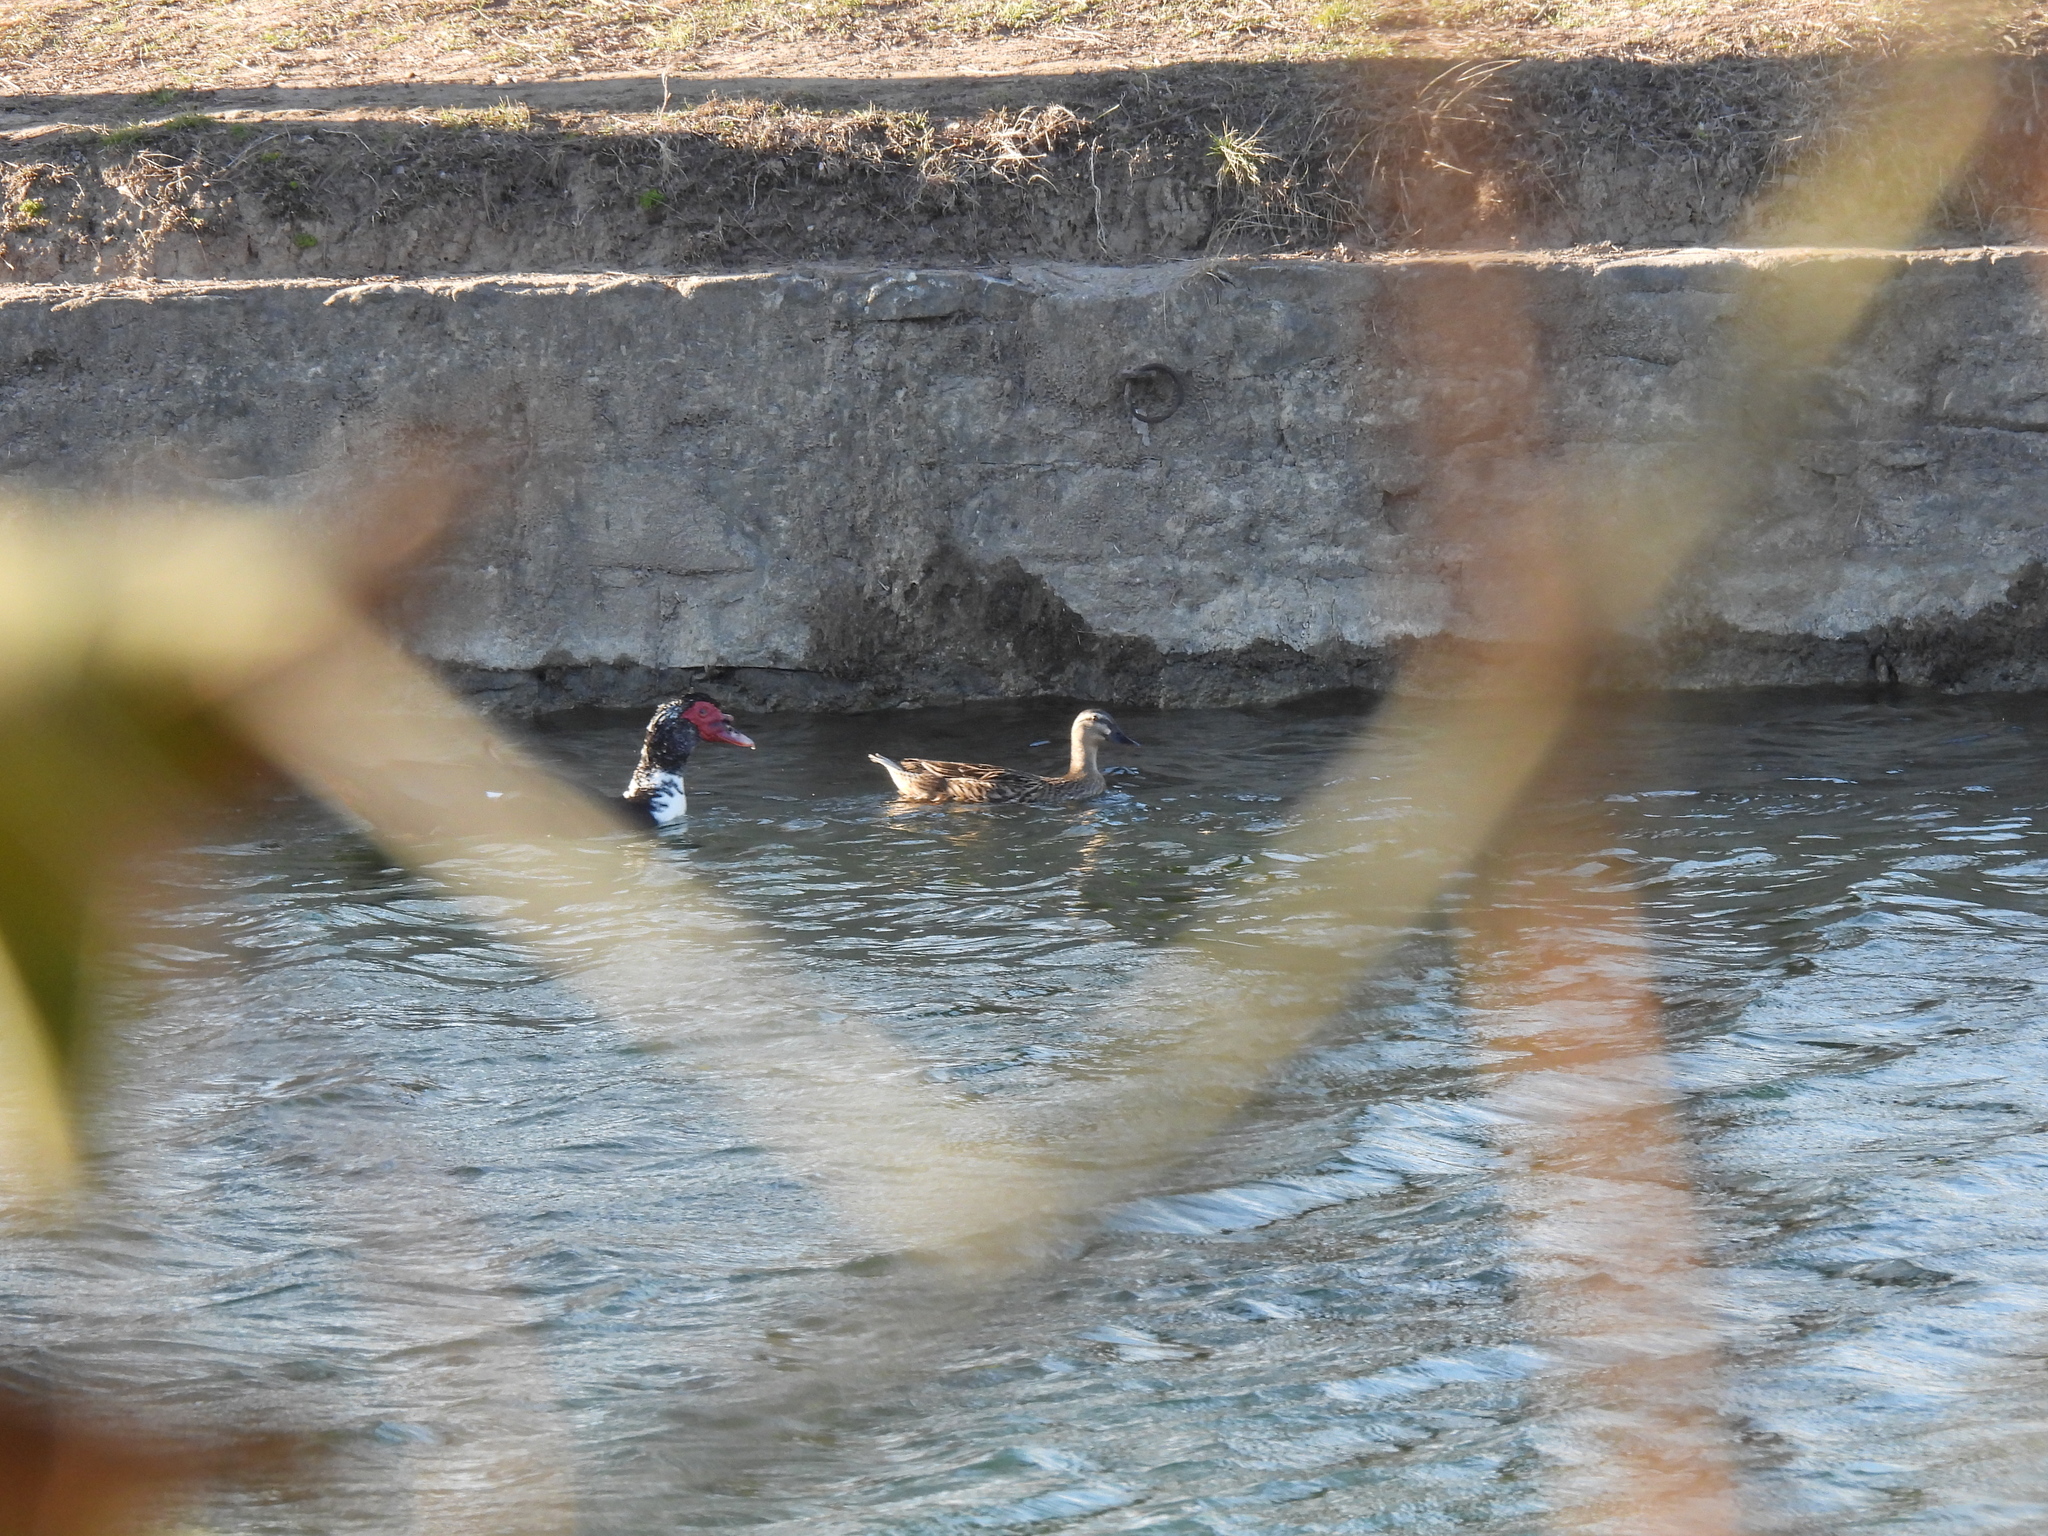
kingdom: Animalia
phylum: Chordata
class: Aves
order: Anseriformes
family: Anatidae
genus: Anas
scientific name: Anas platyrhynchos
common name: Mallard
